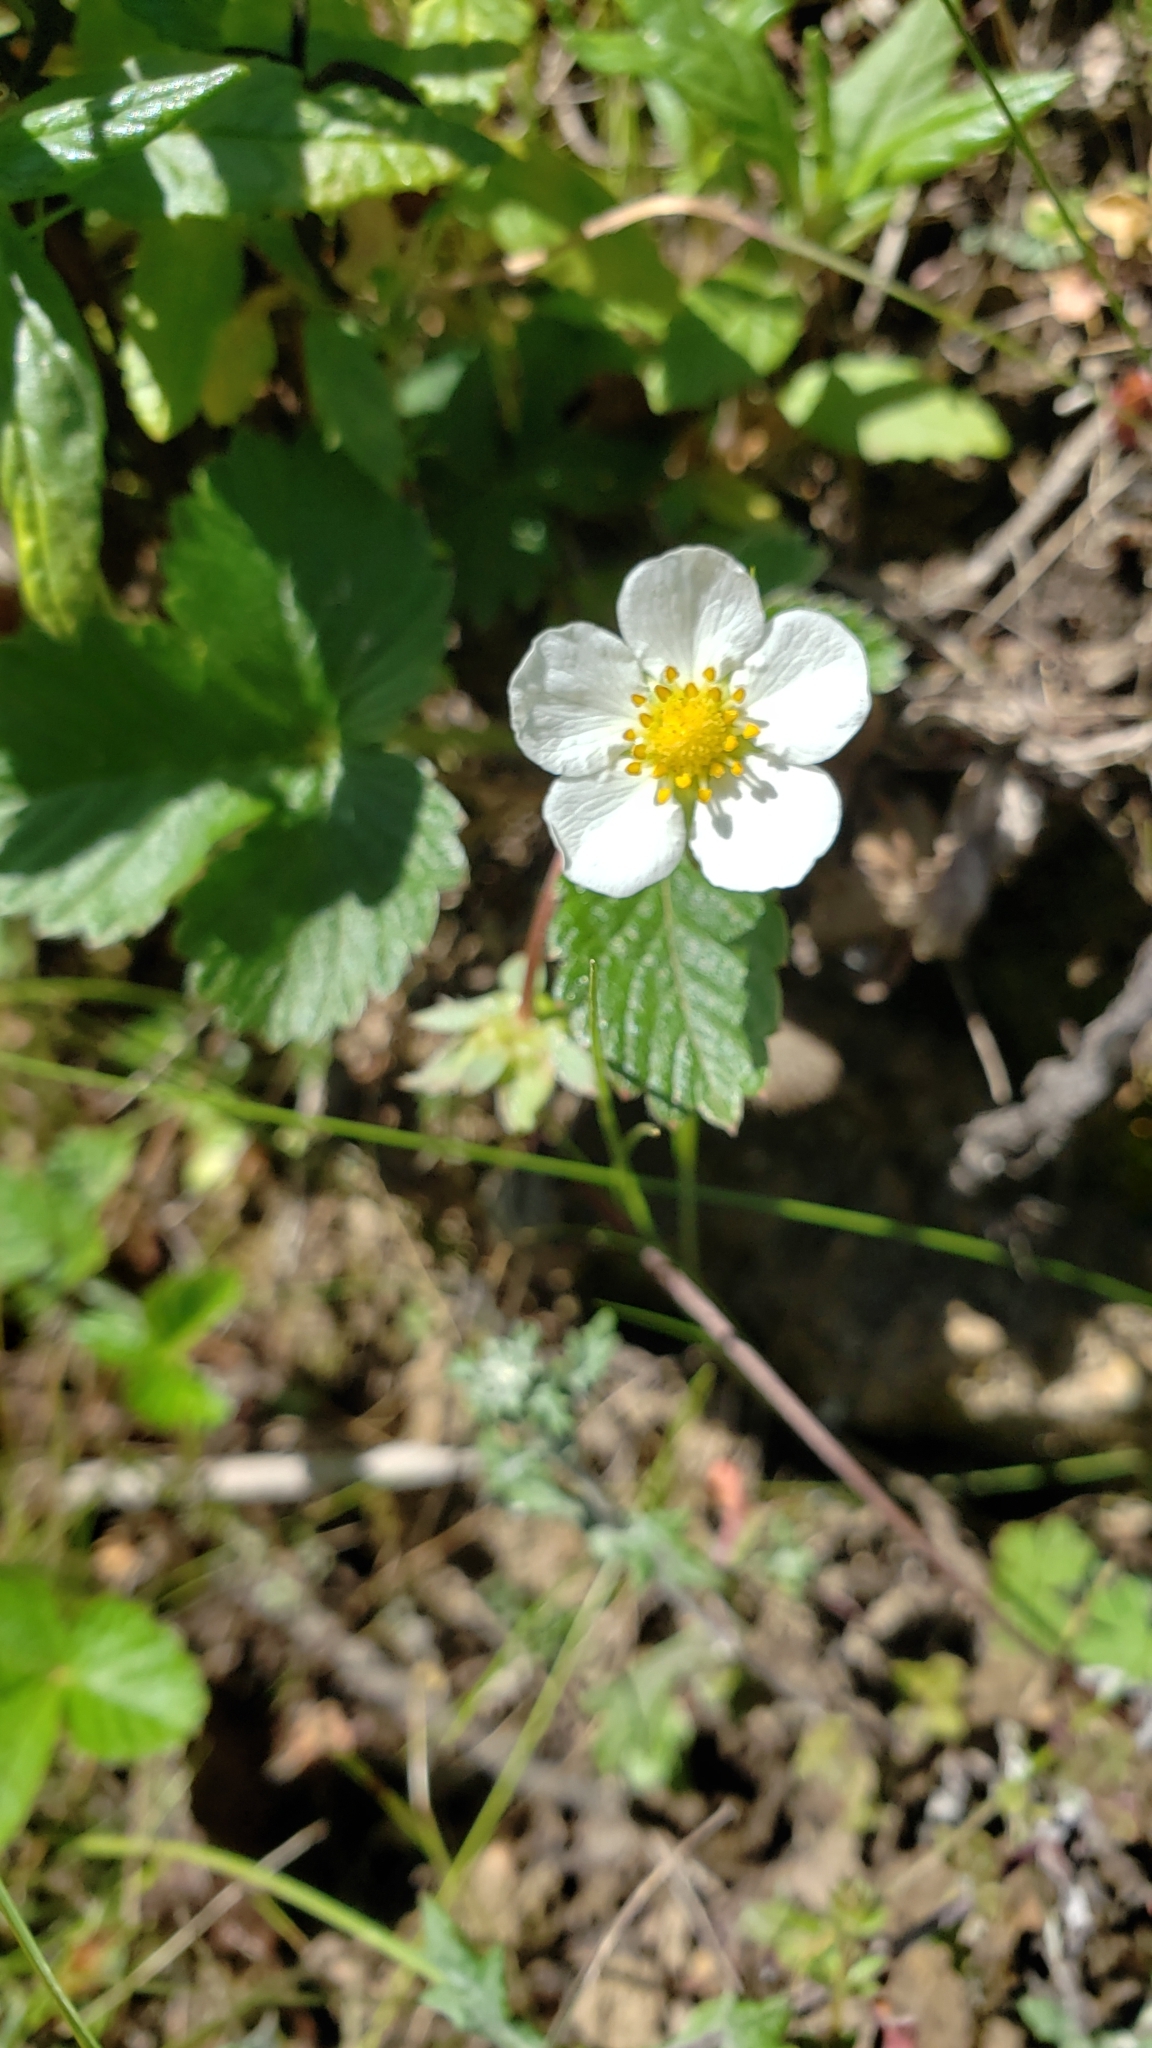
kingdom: Plantae
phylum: Tracheophyta
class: Magnoliopsida
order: Rosales
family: Rosaceae
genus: Fragaria
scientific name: Fragaria vesca
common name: Wild strawberry
